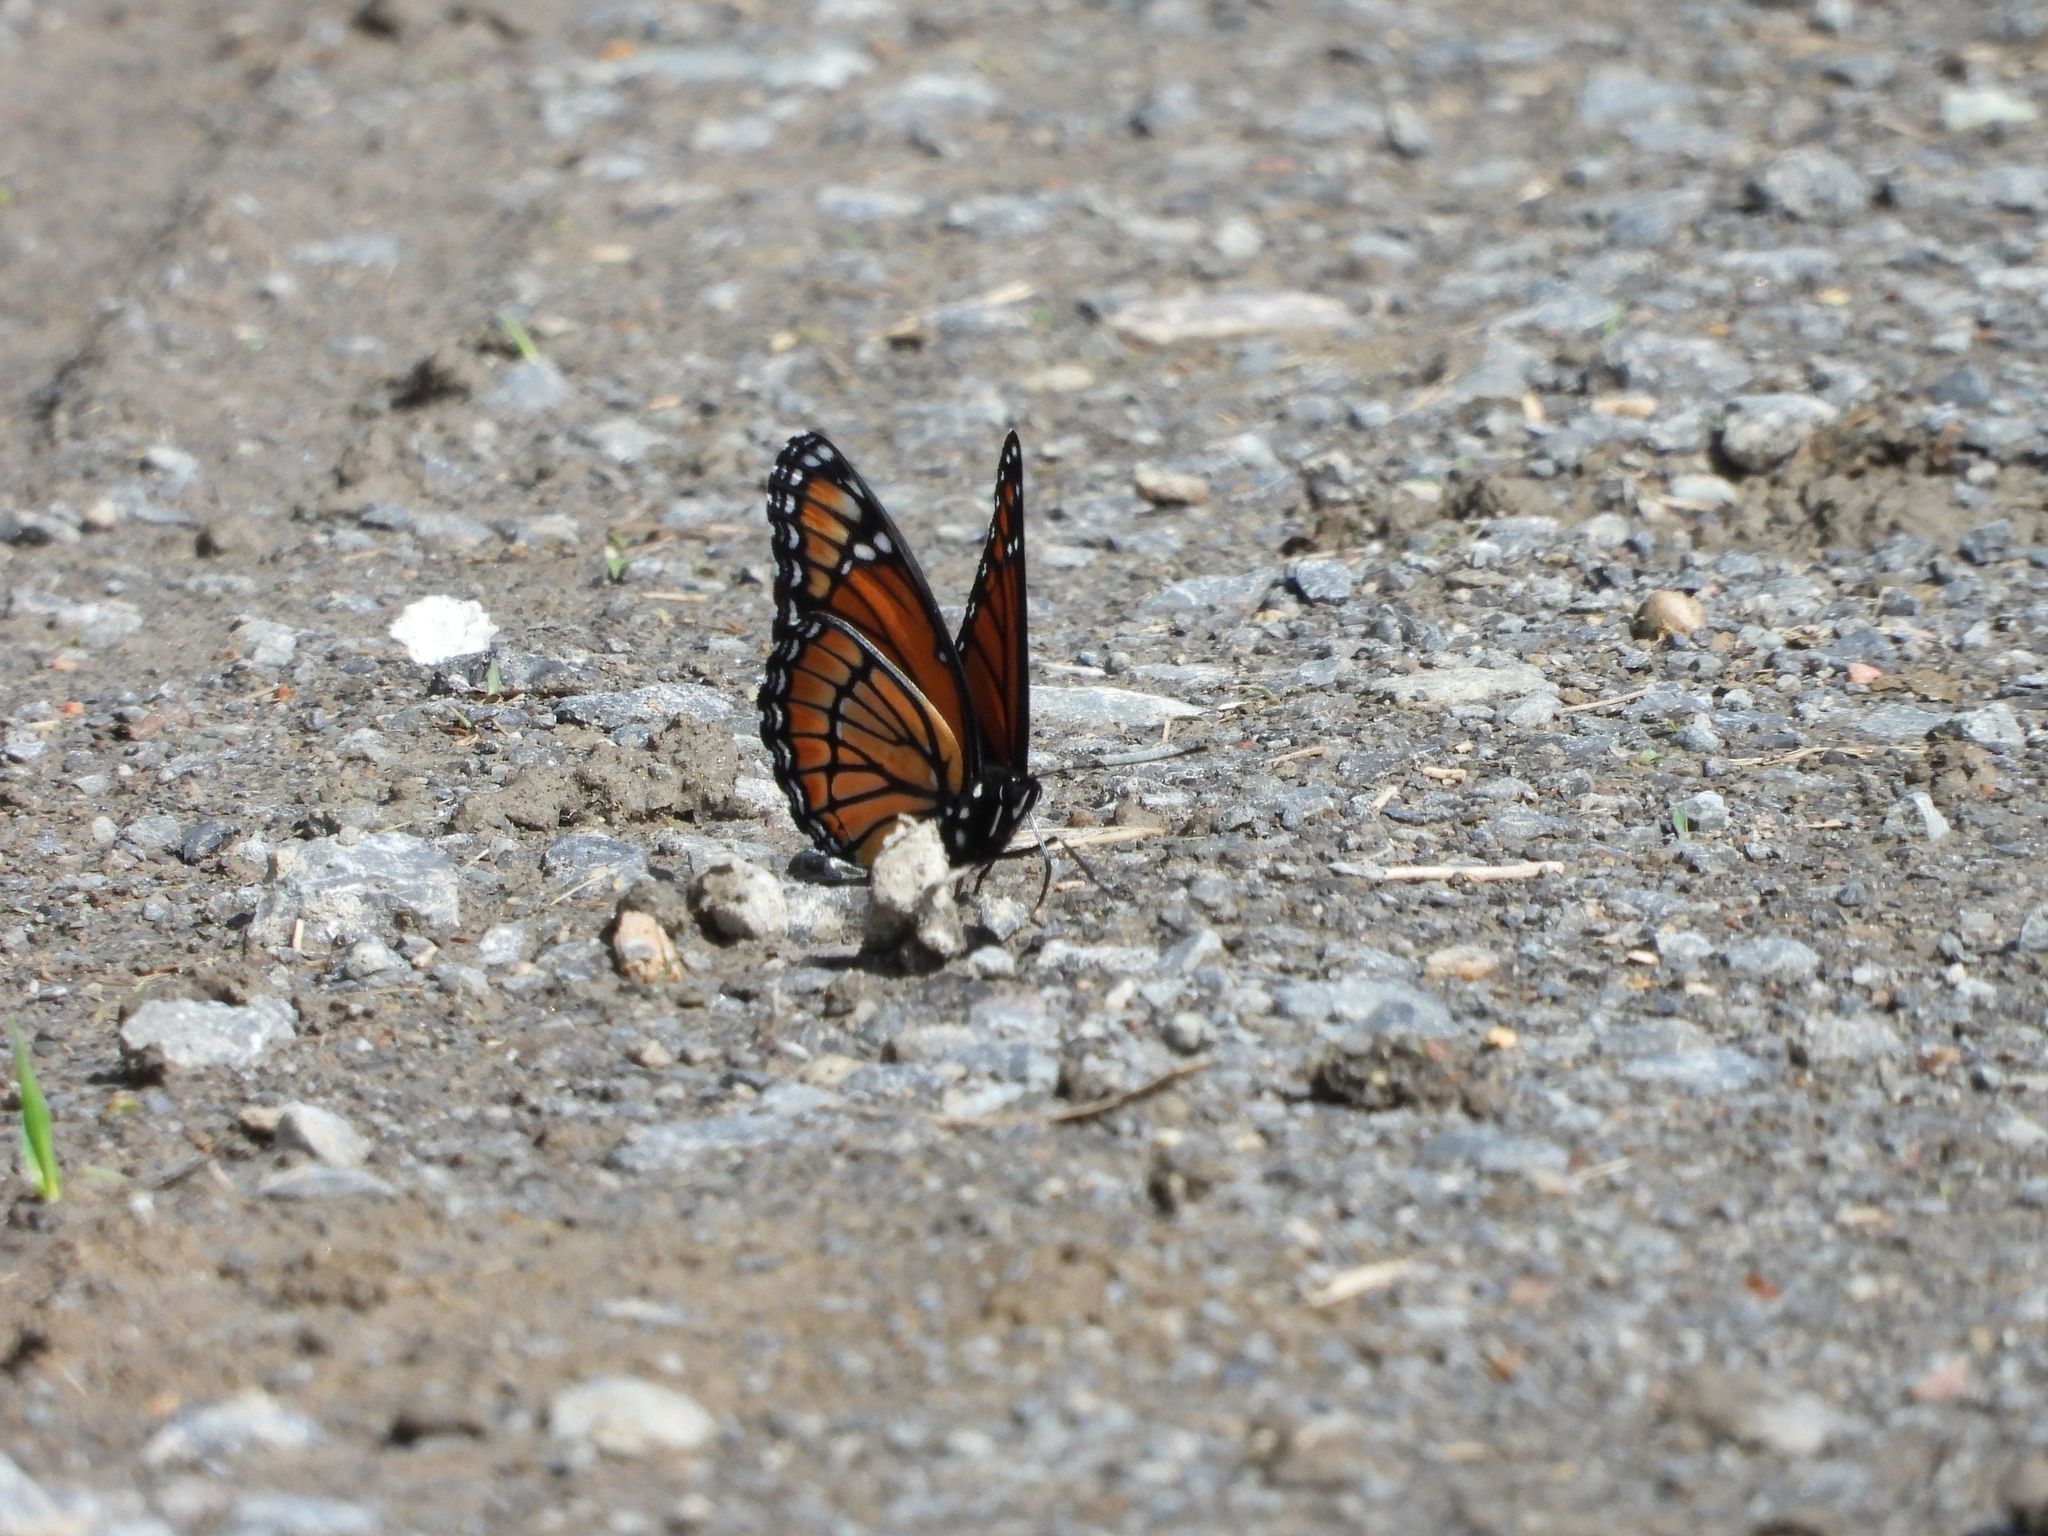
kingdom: Animalia
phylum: Arthropoda
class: Insecta
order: Lepidoptera
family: Nymphalidae
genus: Limenitis
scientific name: Limenitis archippus
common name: Viceroy
